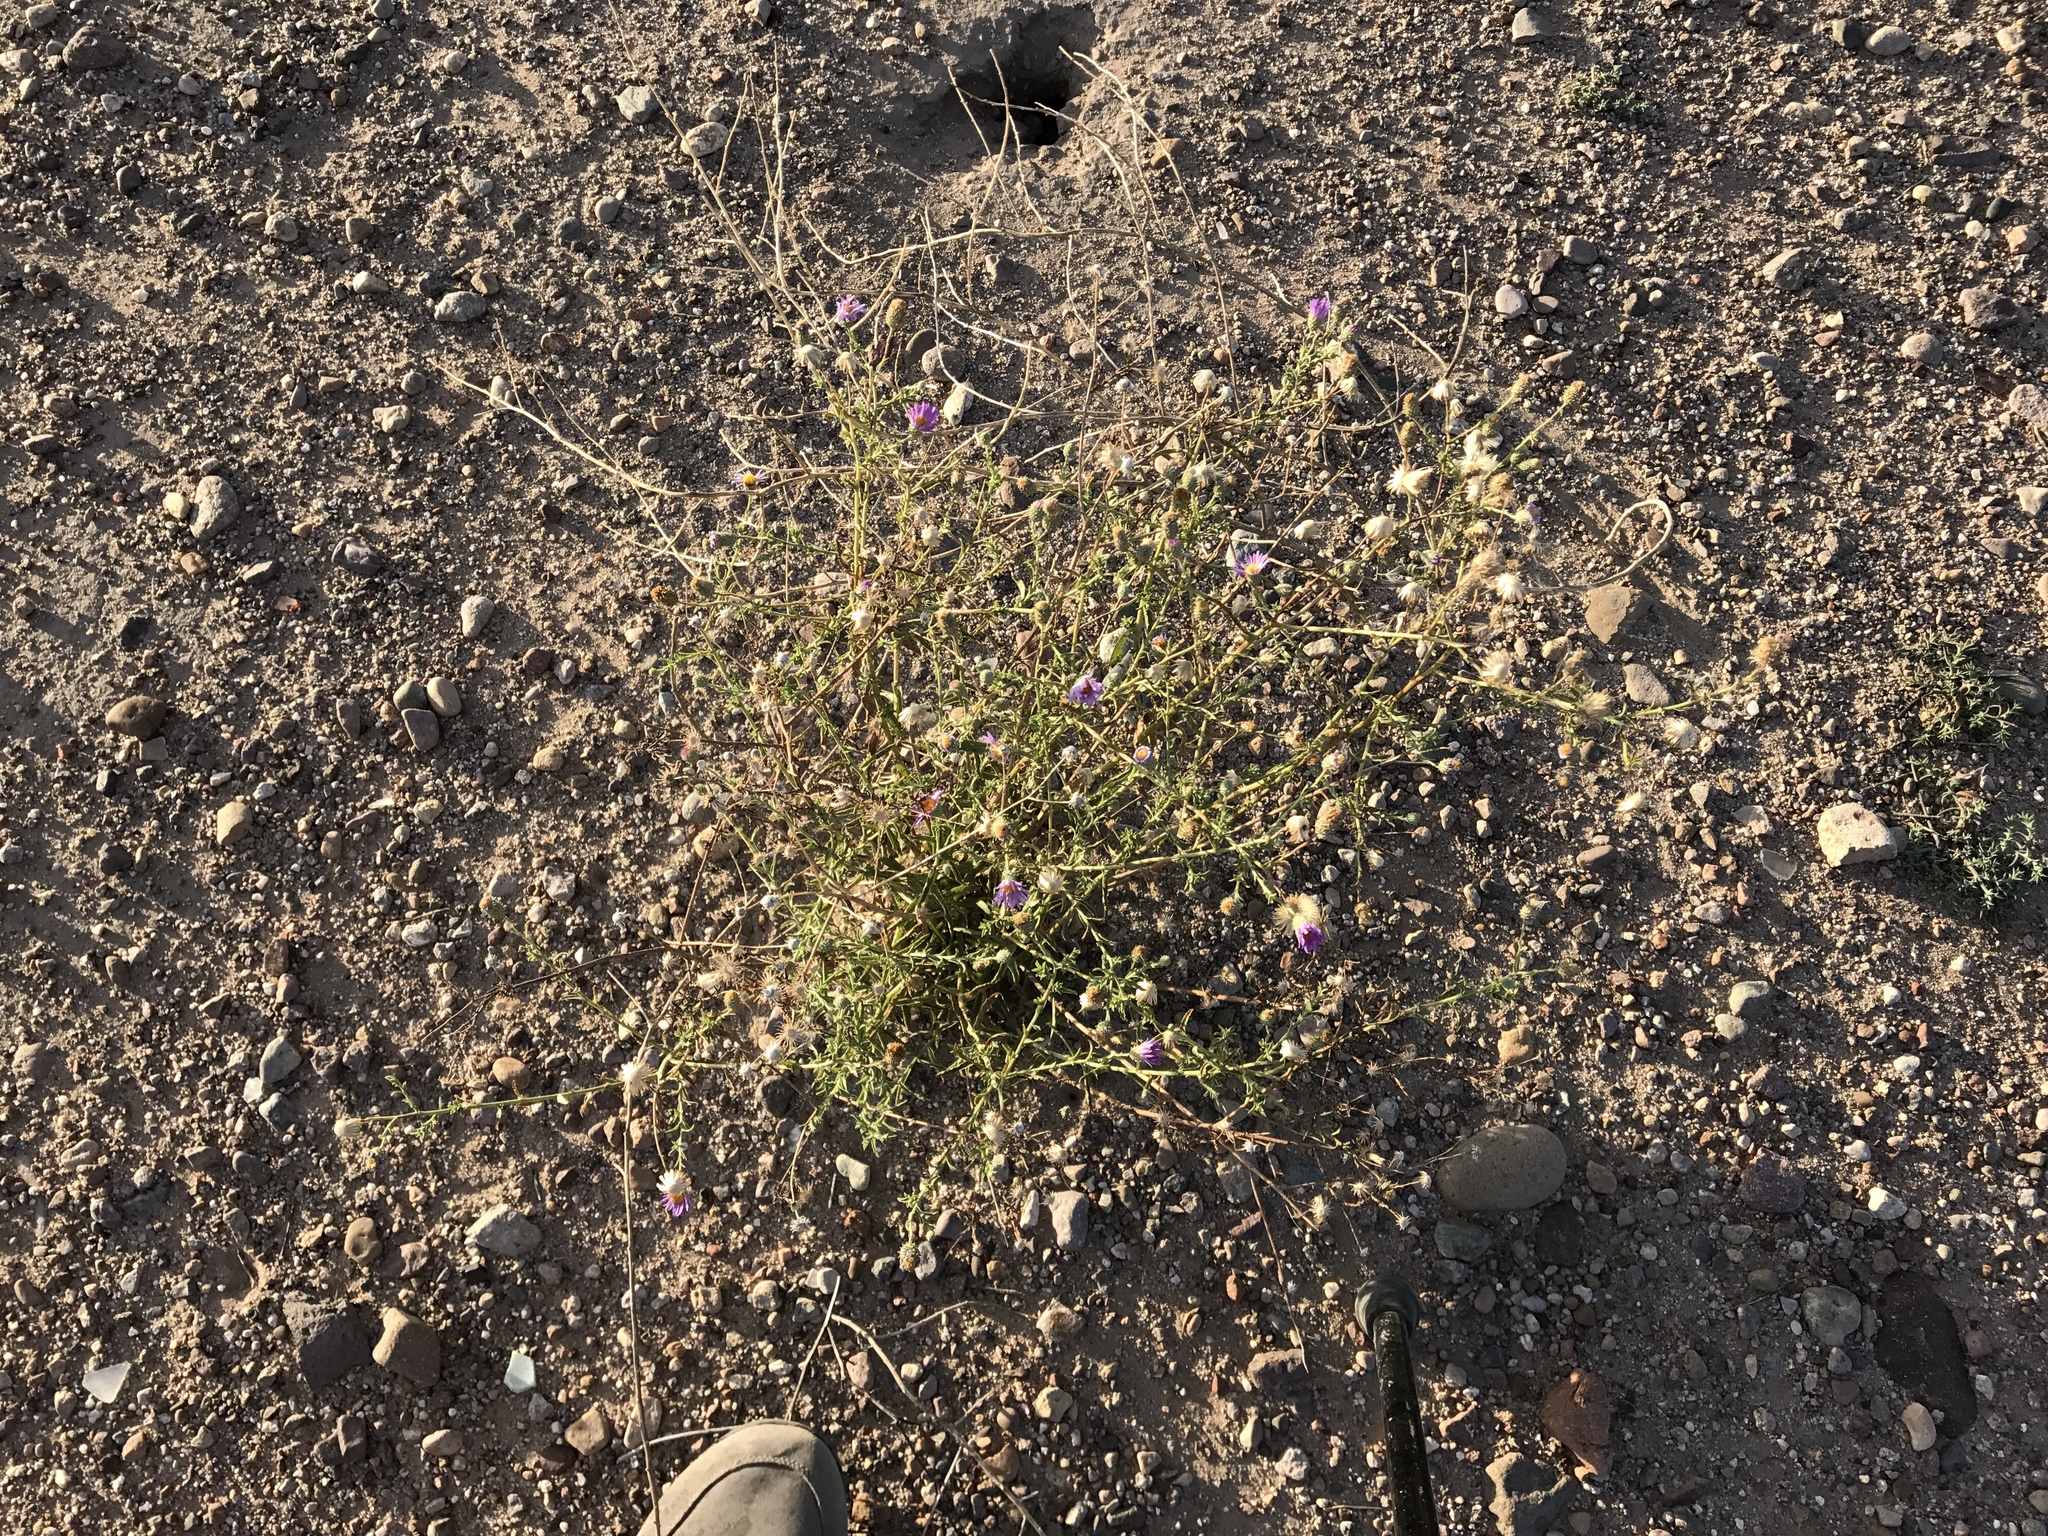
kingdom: Plantae
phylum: Tracheophyta
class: Magnoliopsida
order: Asterales
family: Asteraceae
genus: Machaeranthera
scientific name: Machaeranthera tanacetifolia
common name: Tansy-aster
